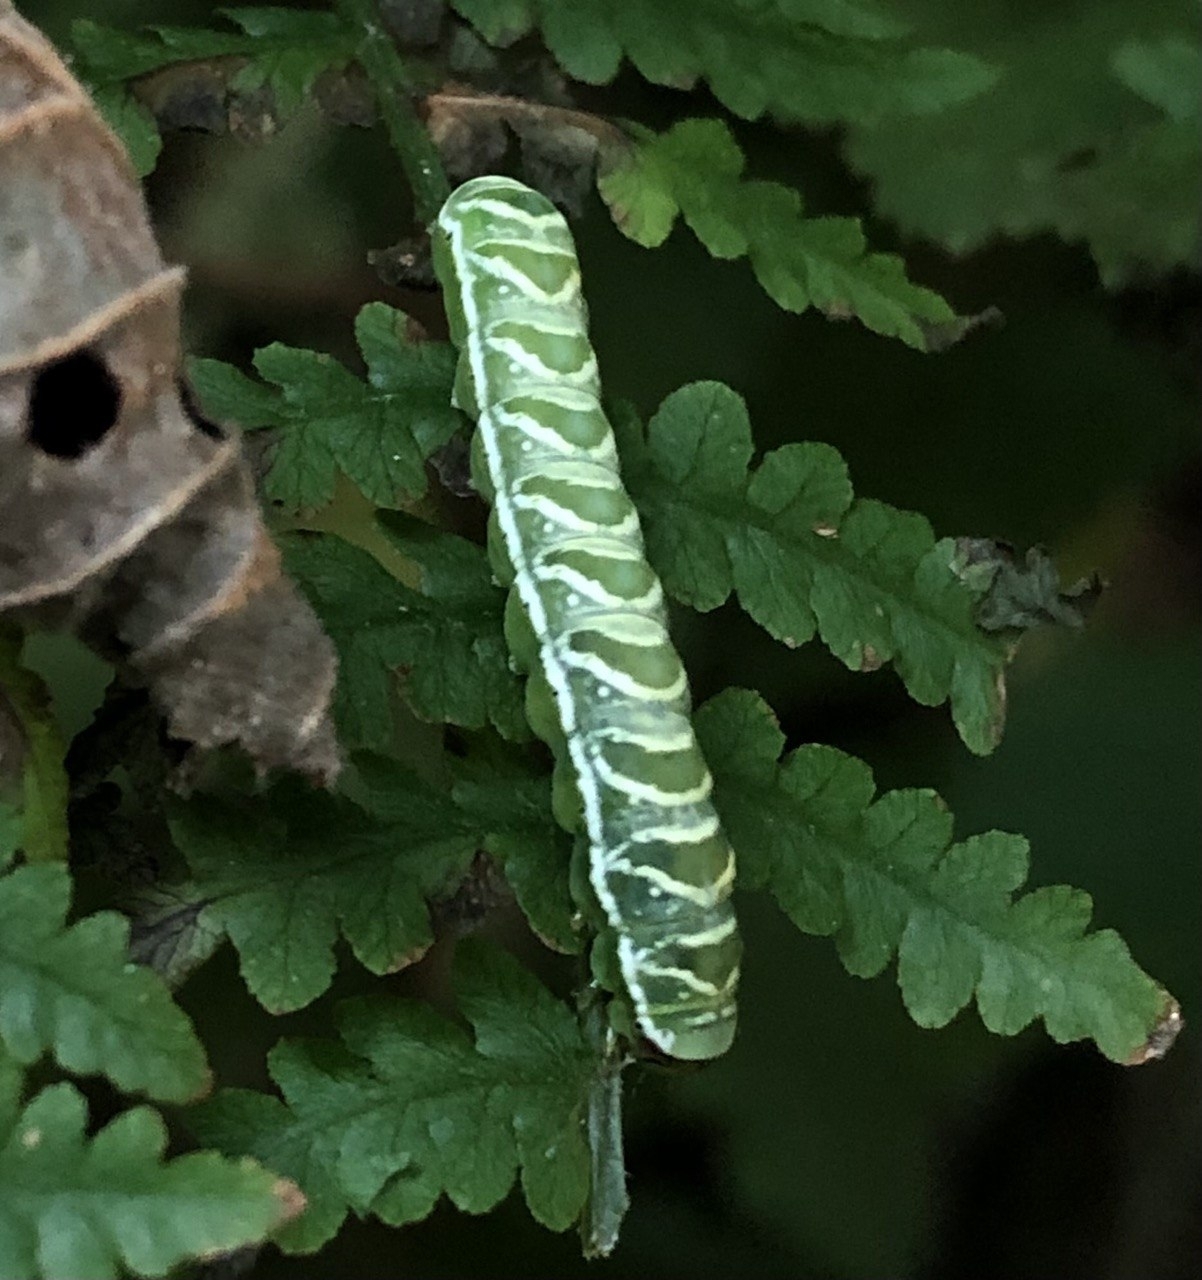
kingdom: Animalia
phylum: Arthropoda
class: Insecta
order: Lepidoptera
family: Noctuidae
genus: Callopistria
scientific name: Callopistria juventina
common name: Latin
